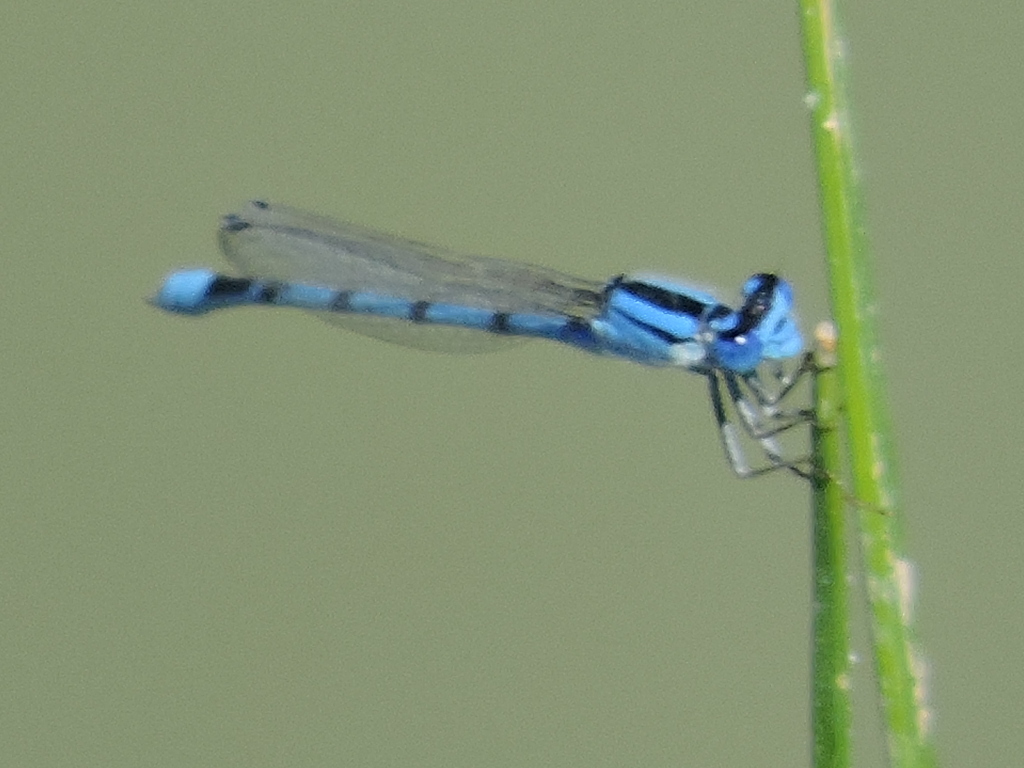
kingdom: Animalia
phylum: Arthropoda
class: Insecta
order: Odonata
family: Coenagrionidae
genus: Enallagma
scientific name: Enallagma civile
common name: Damselfly
